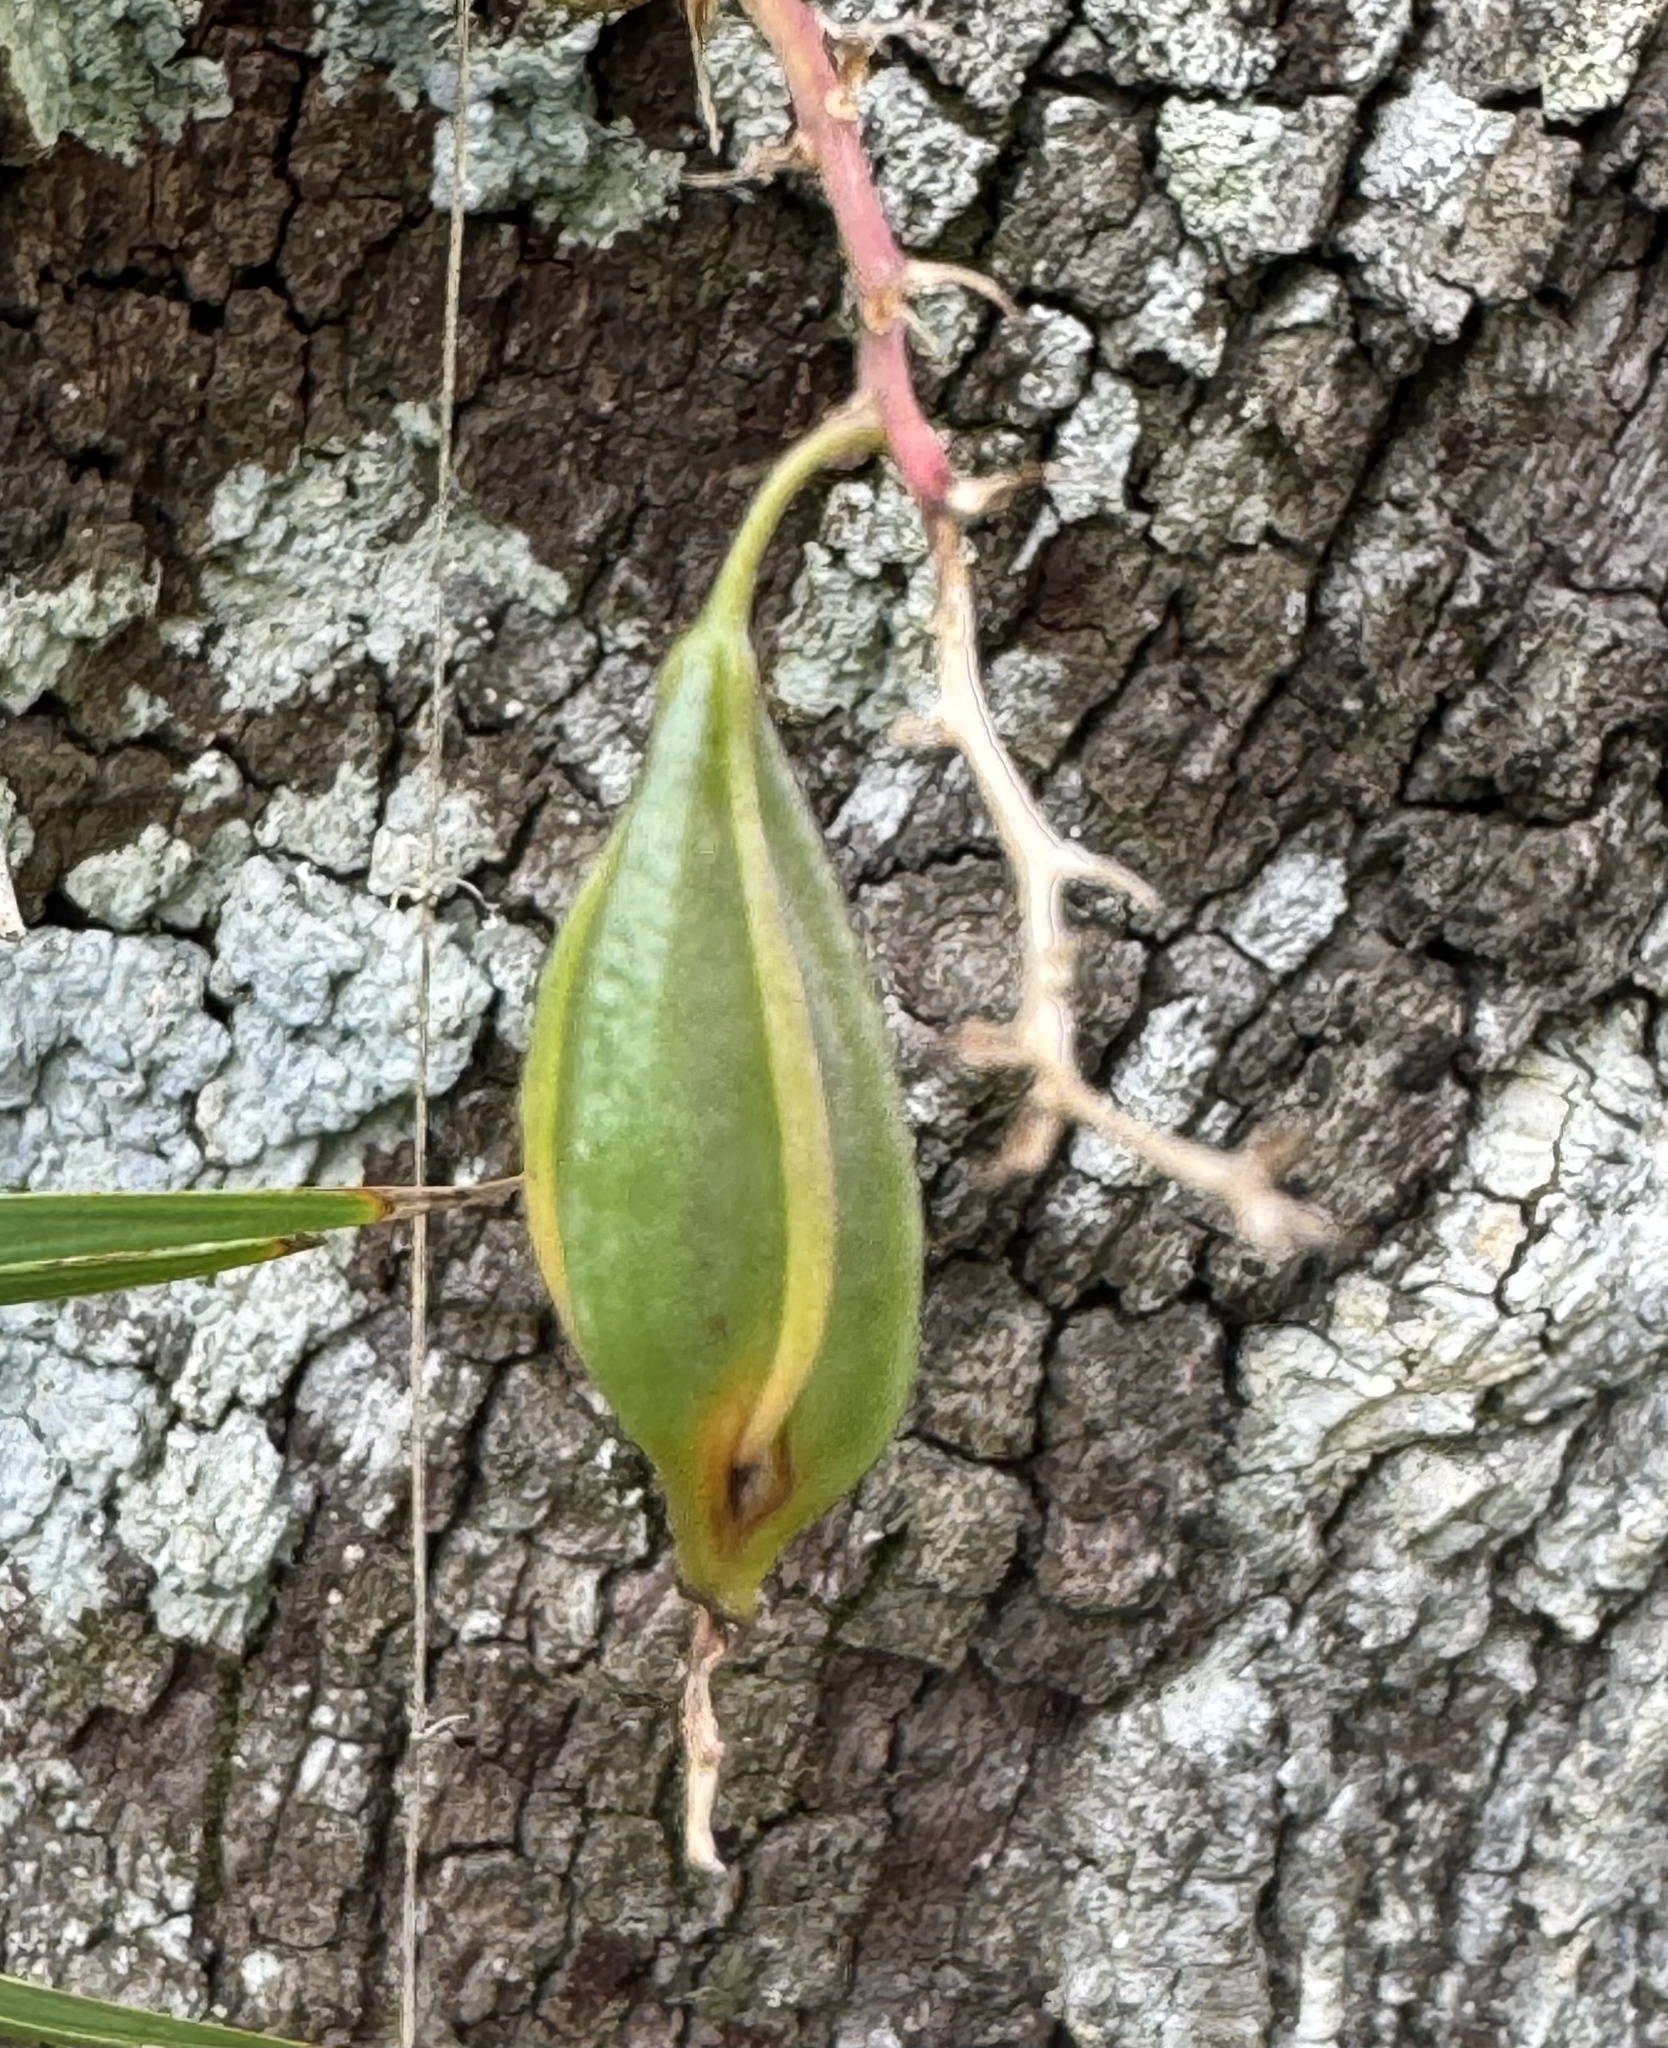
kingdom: Plantae
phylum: Tracheophyta
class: Liliopsida
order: Asparagales
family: Orchidaceae
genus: Epidendrum
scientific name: Epidendrum conopseum
